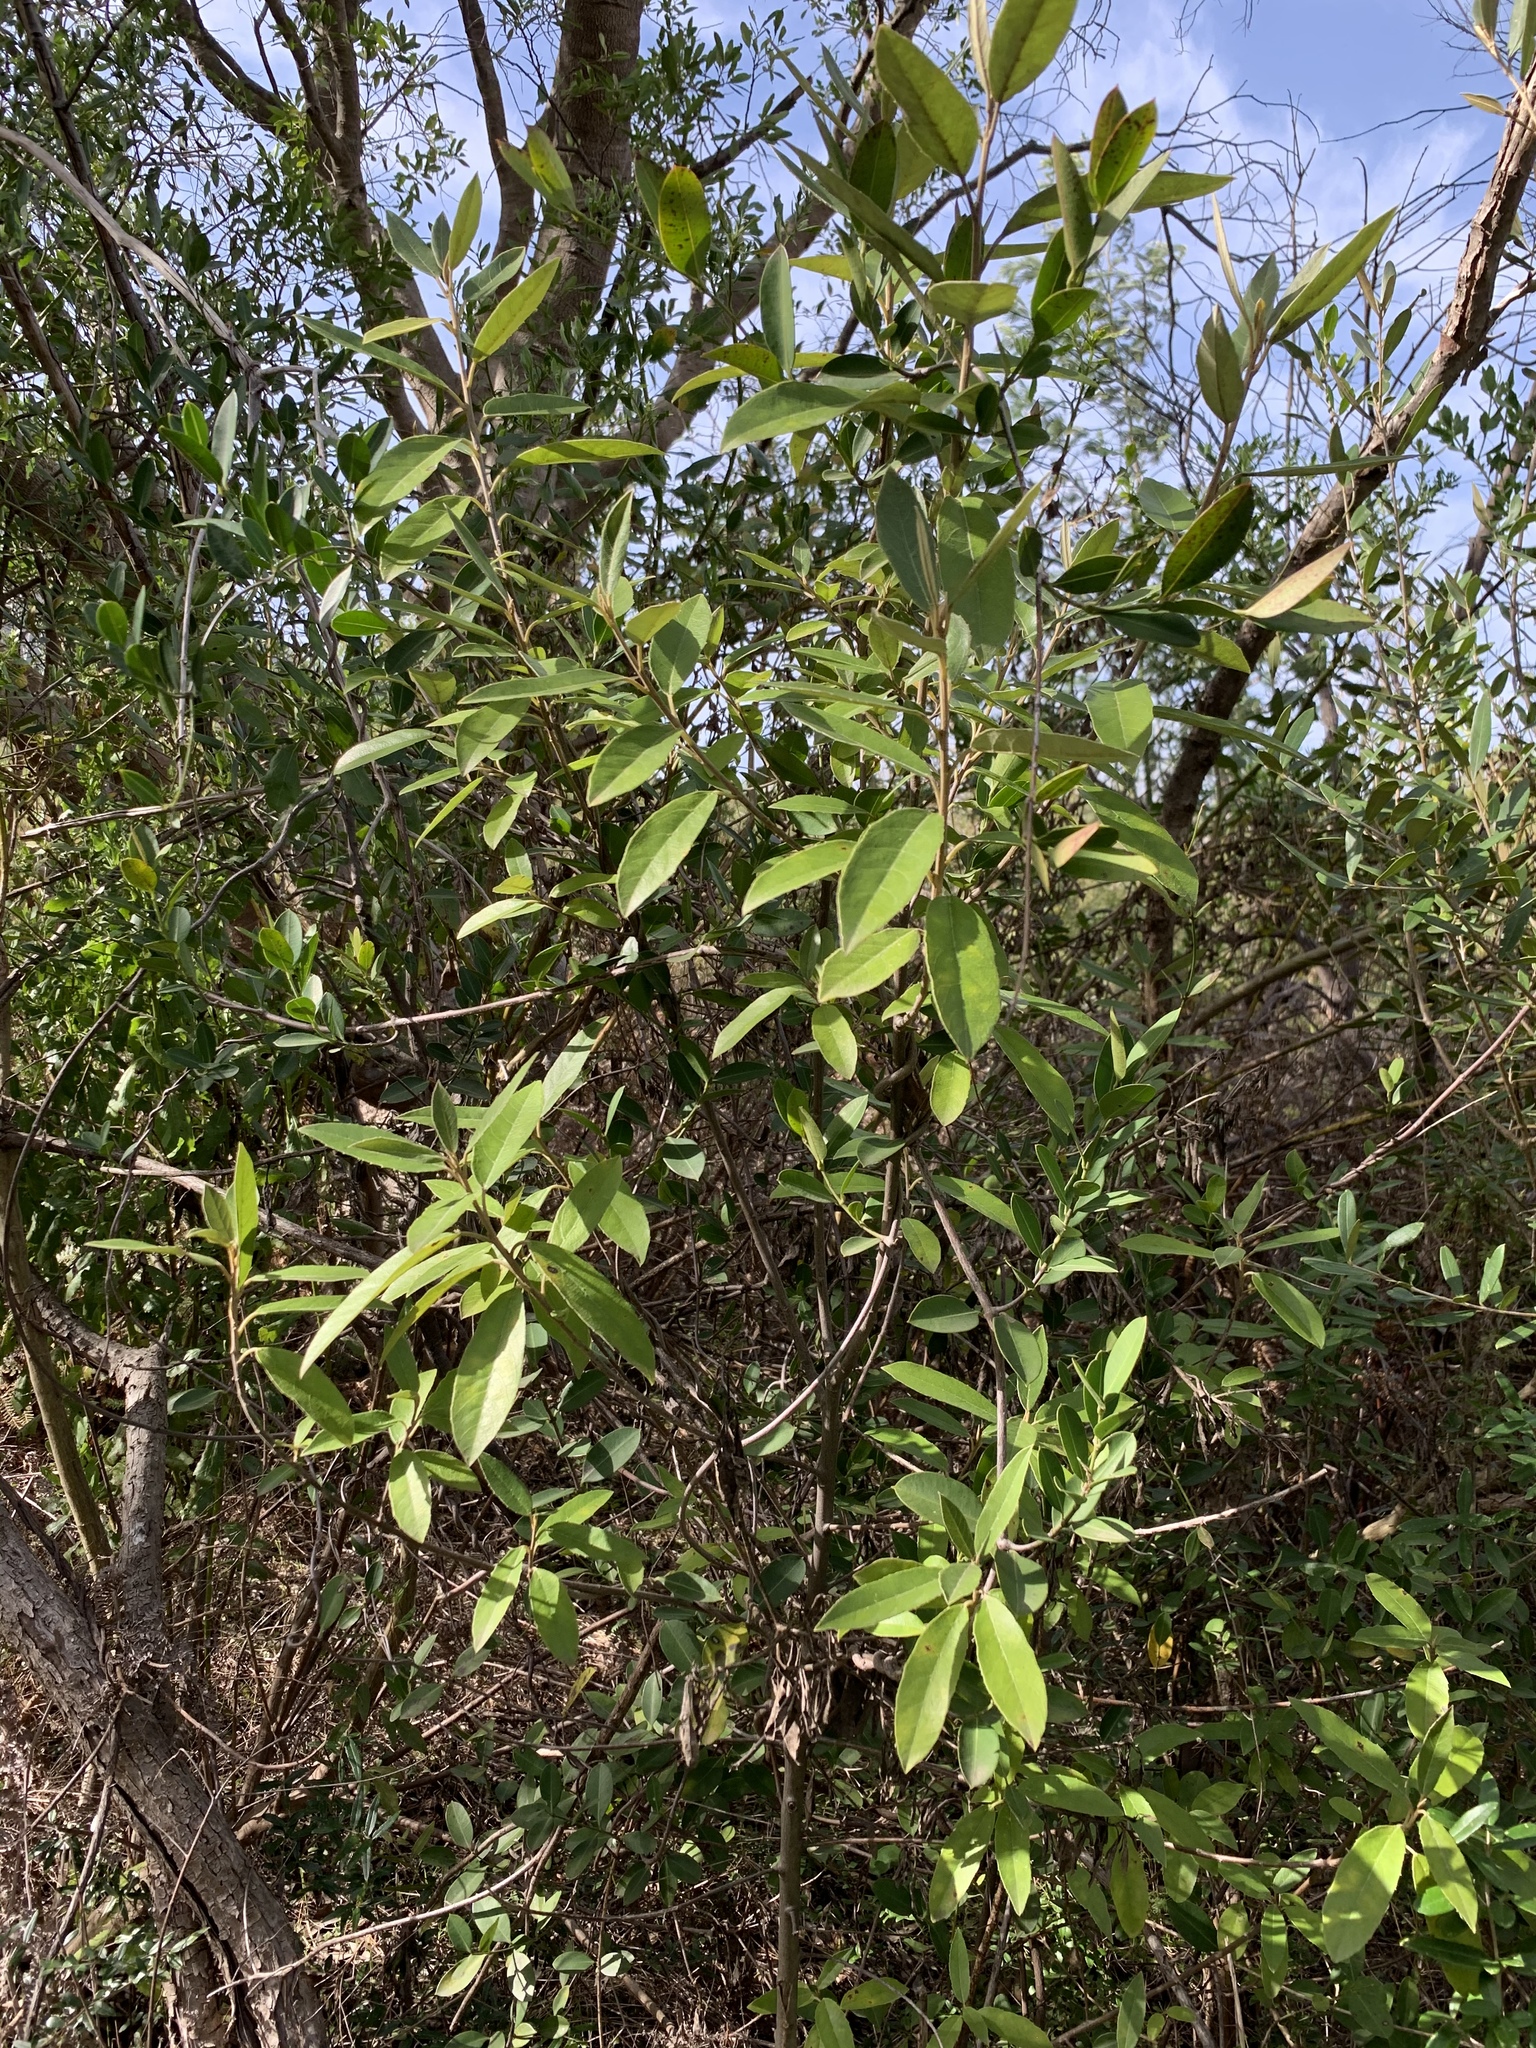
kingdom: Plantae
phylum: Tracheophyta
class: Magnoliopsida
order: Malpighiales
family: Achariaceae
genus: Kiggelaria
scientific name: Kiggelaria africana
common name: Wild peach
